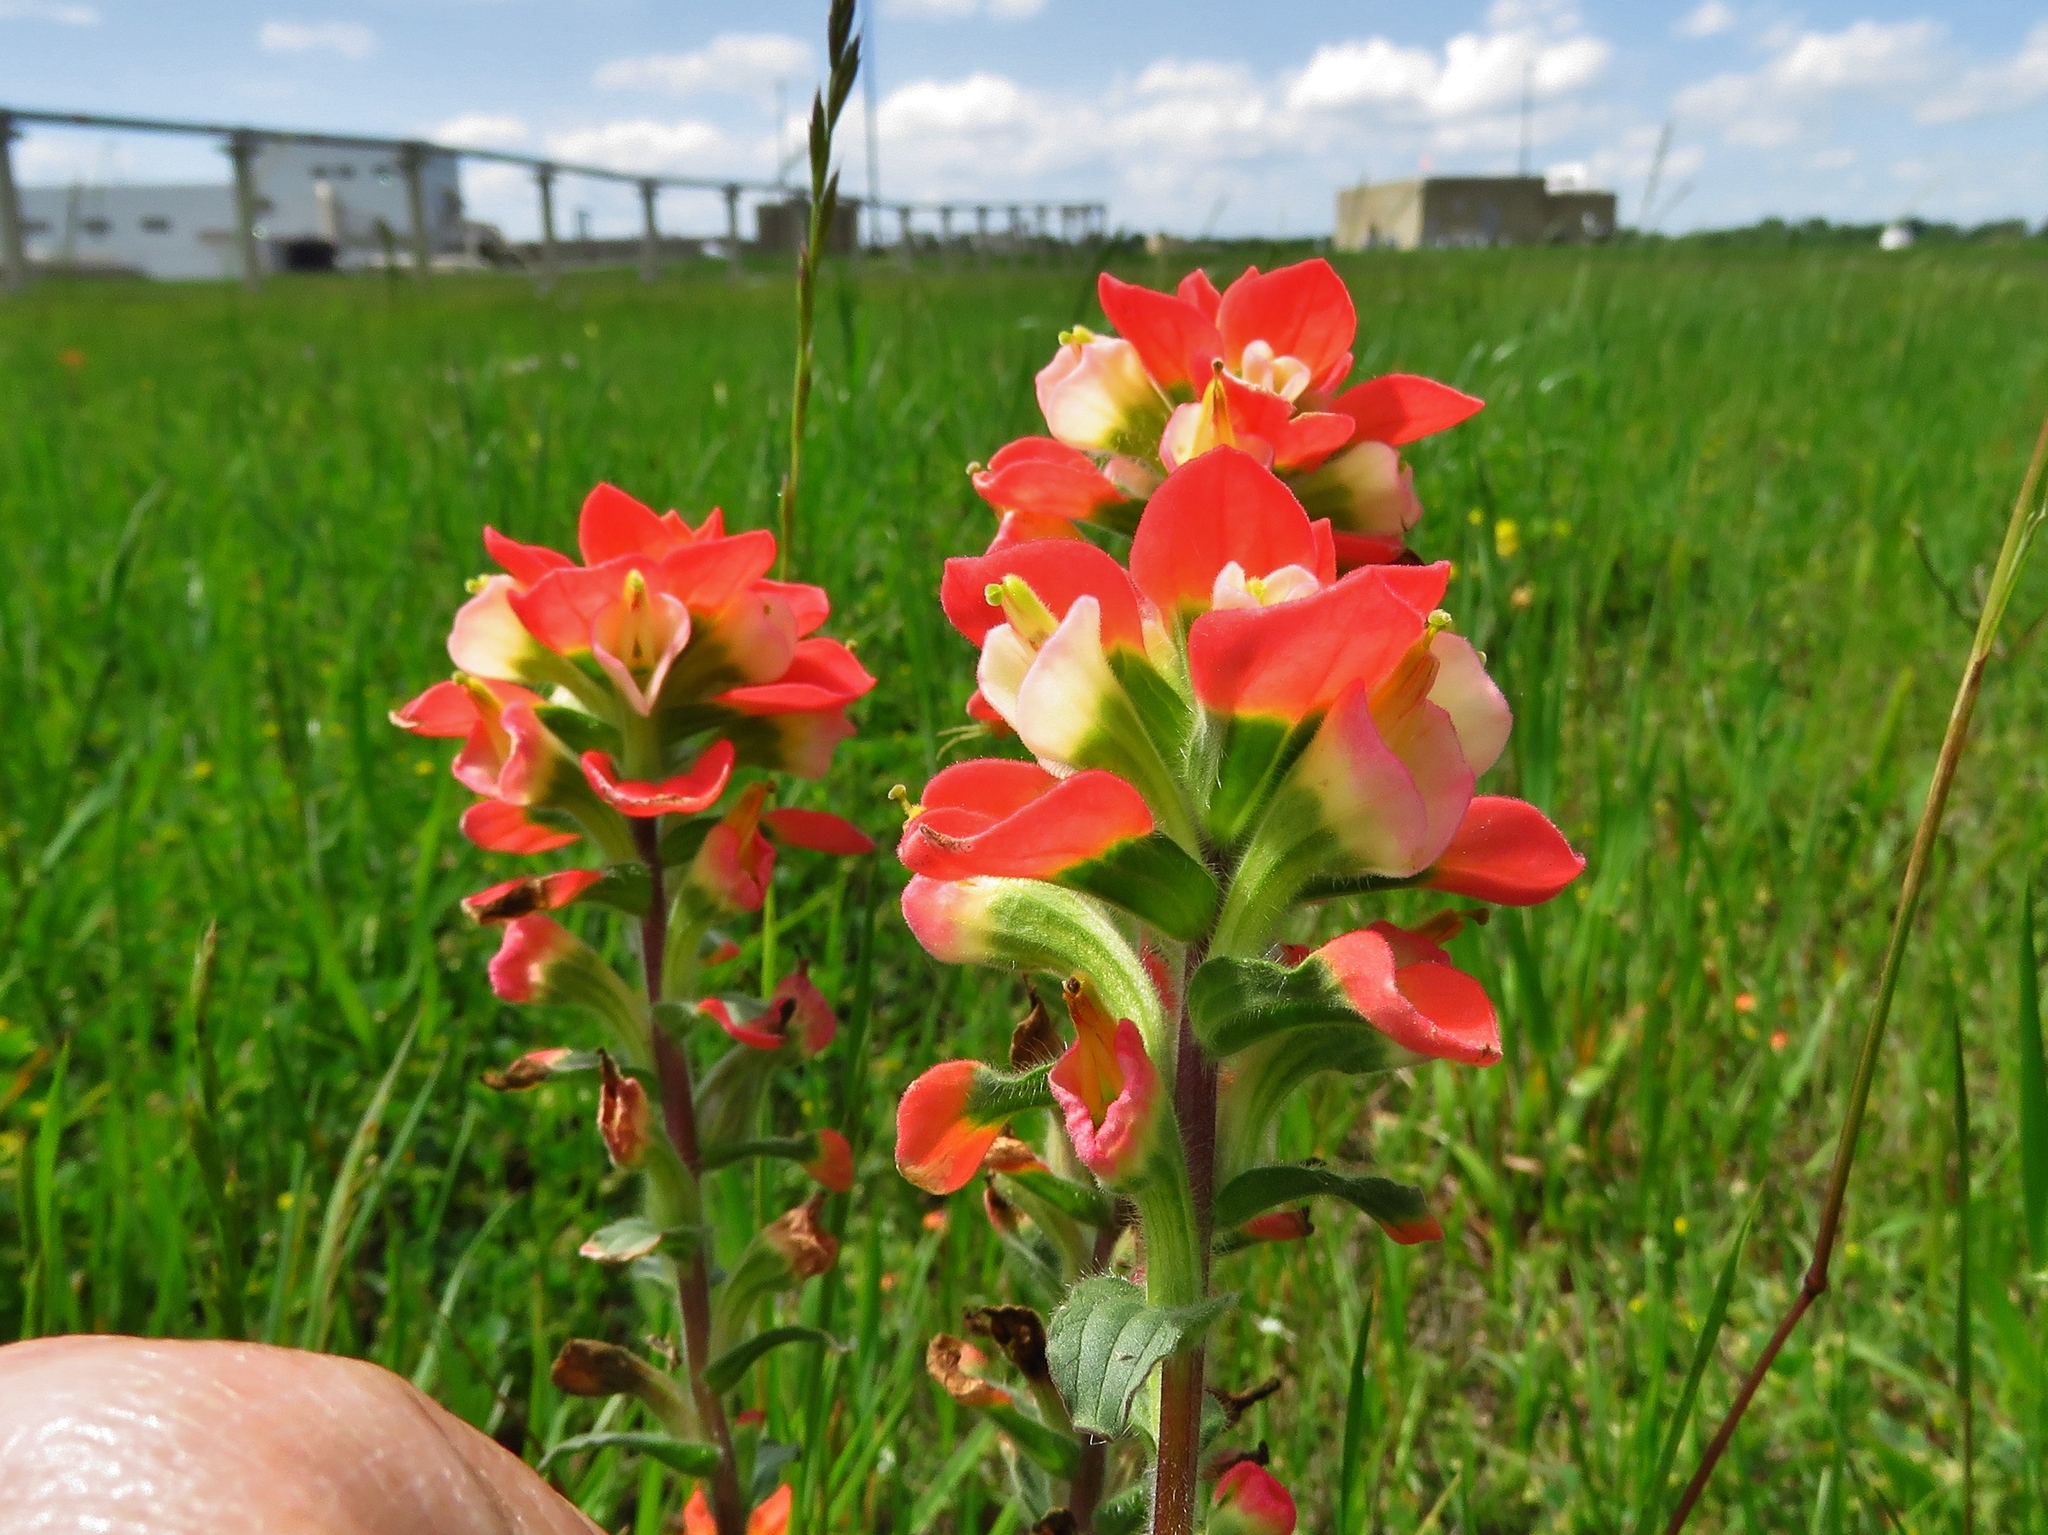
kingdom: Plantae
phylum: Tracheophyta
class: Magnoliopsida
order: Lamiales
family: Orobanchaceae
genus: Castilleja
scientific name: Castilleja indivisa
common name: Texas paintbrush
